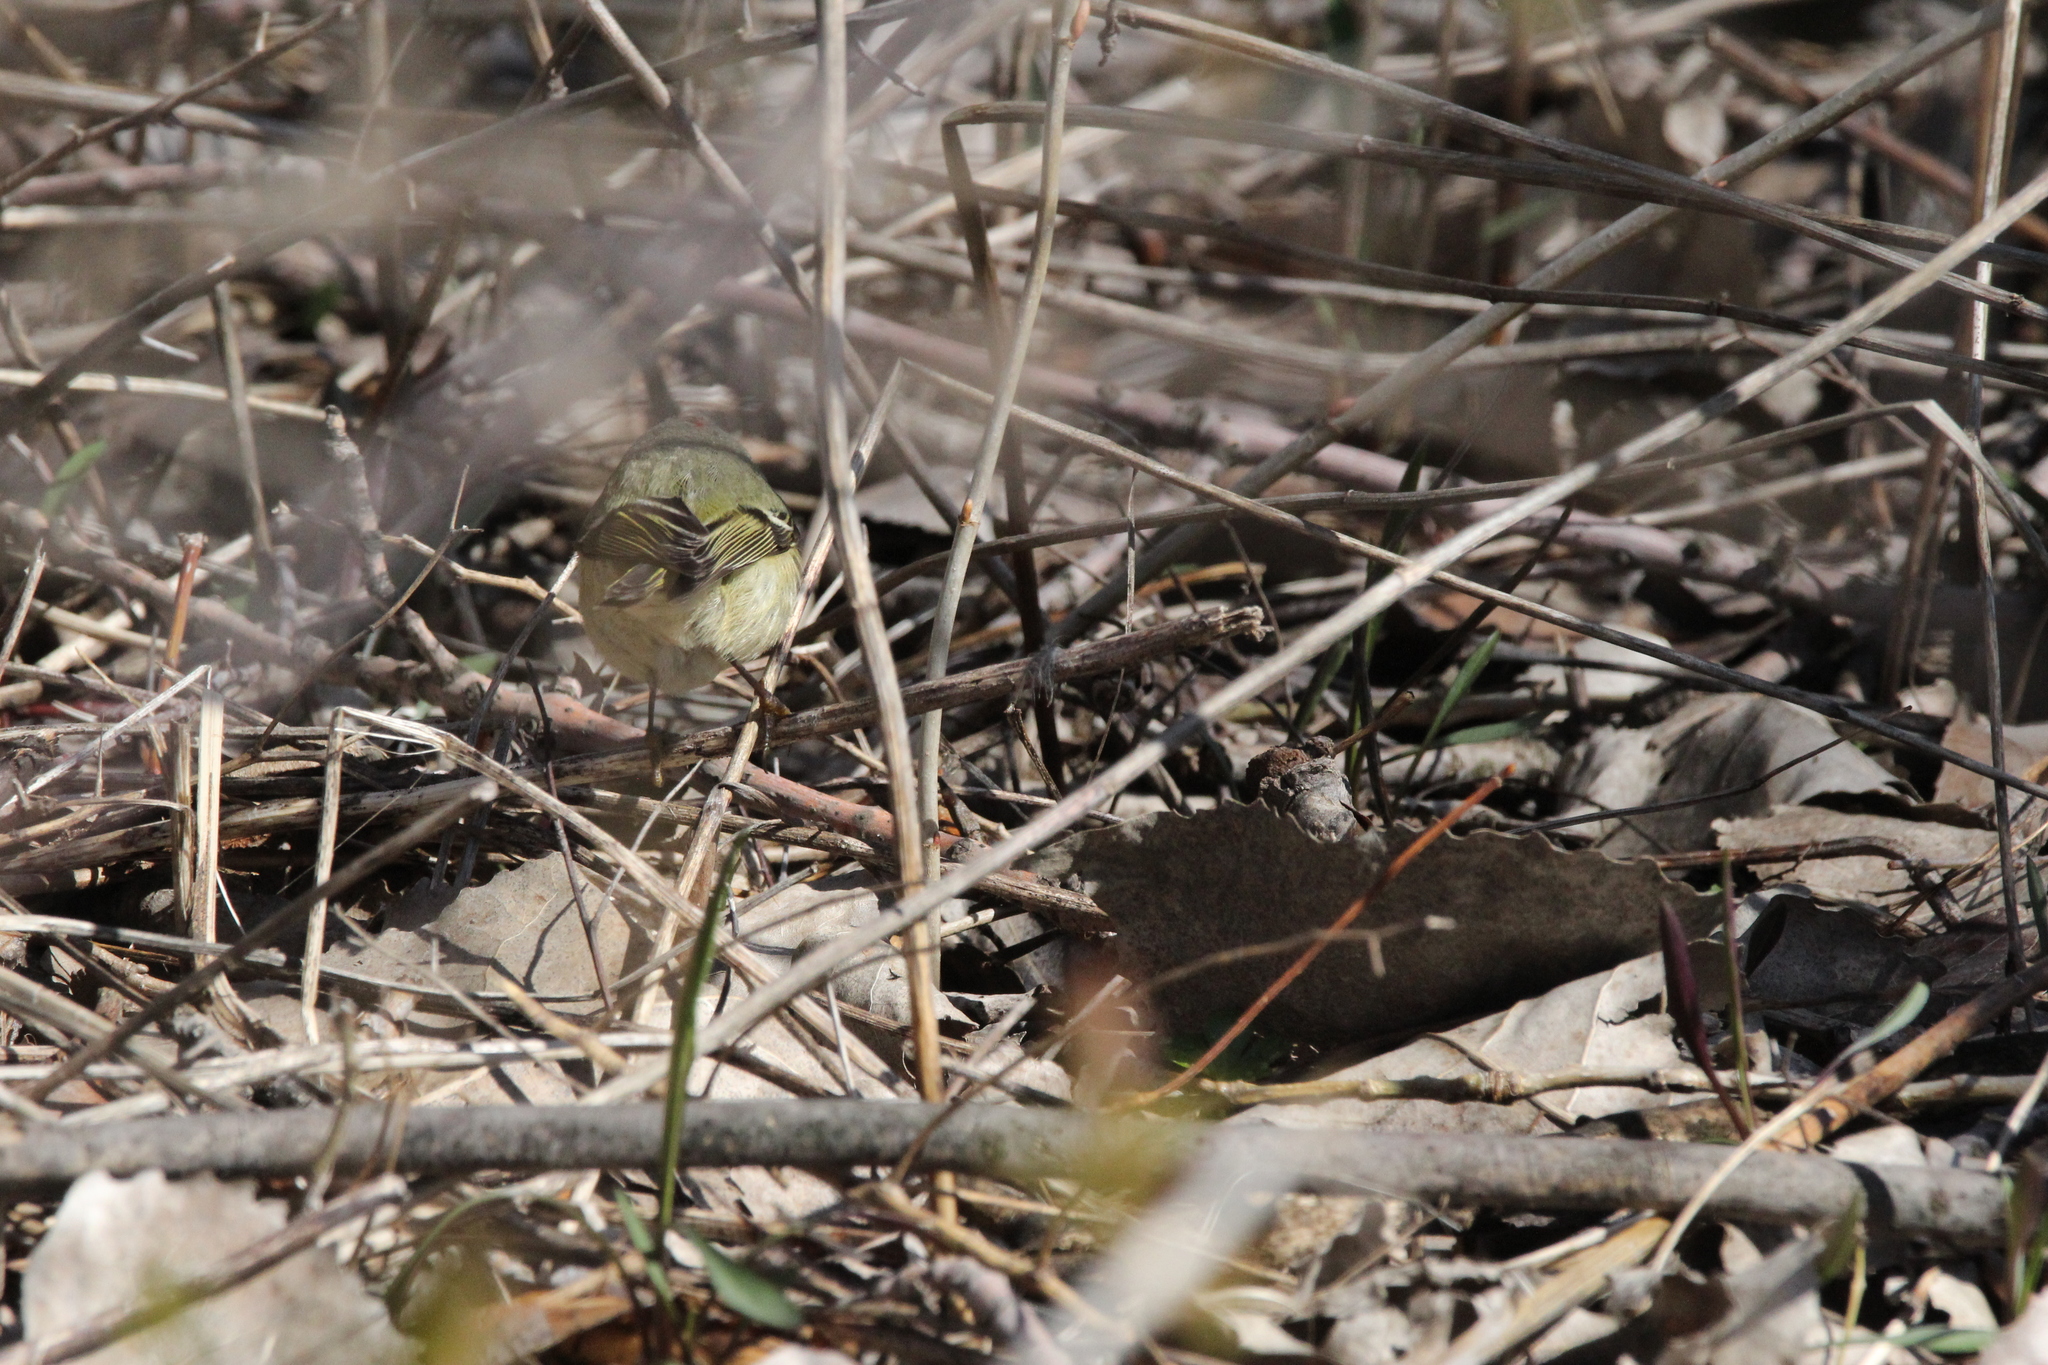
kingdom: Animalia
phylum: Chordata
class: Aves
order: Passeriformes
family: Regulidae
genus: Regulus
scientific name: Regulus calendula
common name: Ruby-crowned kinglet
